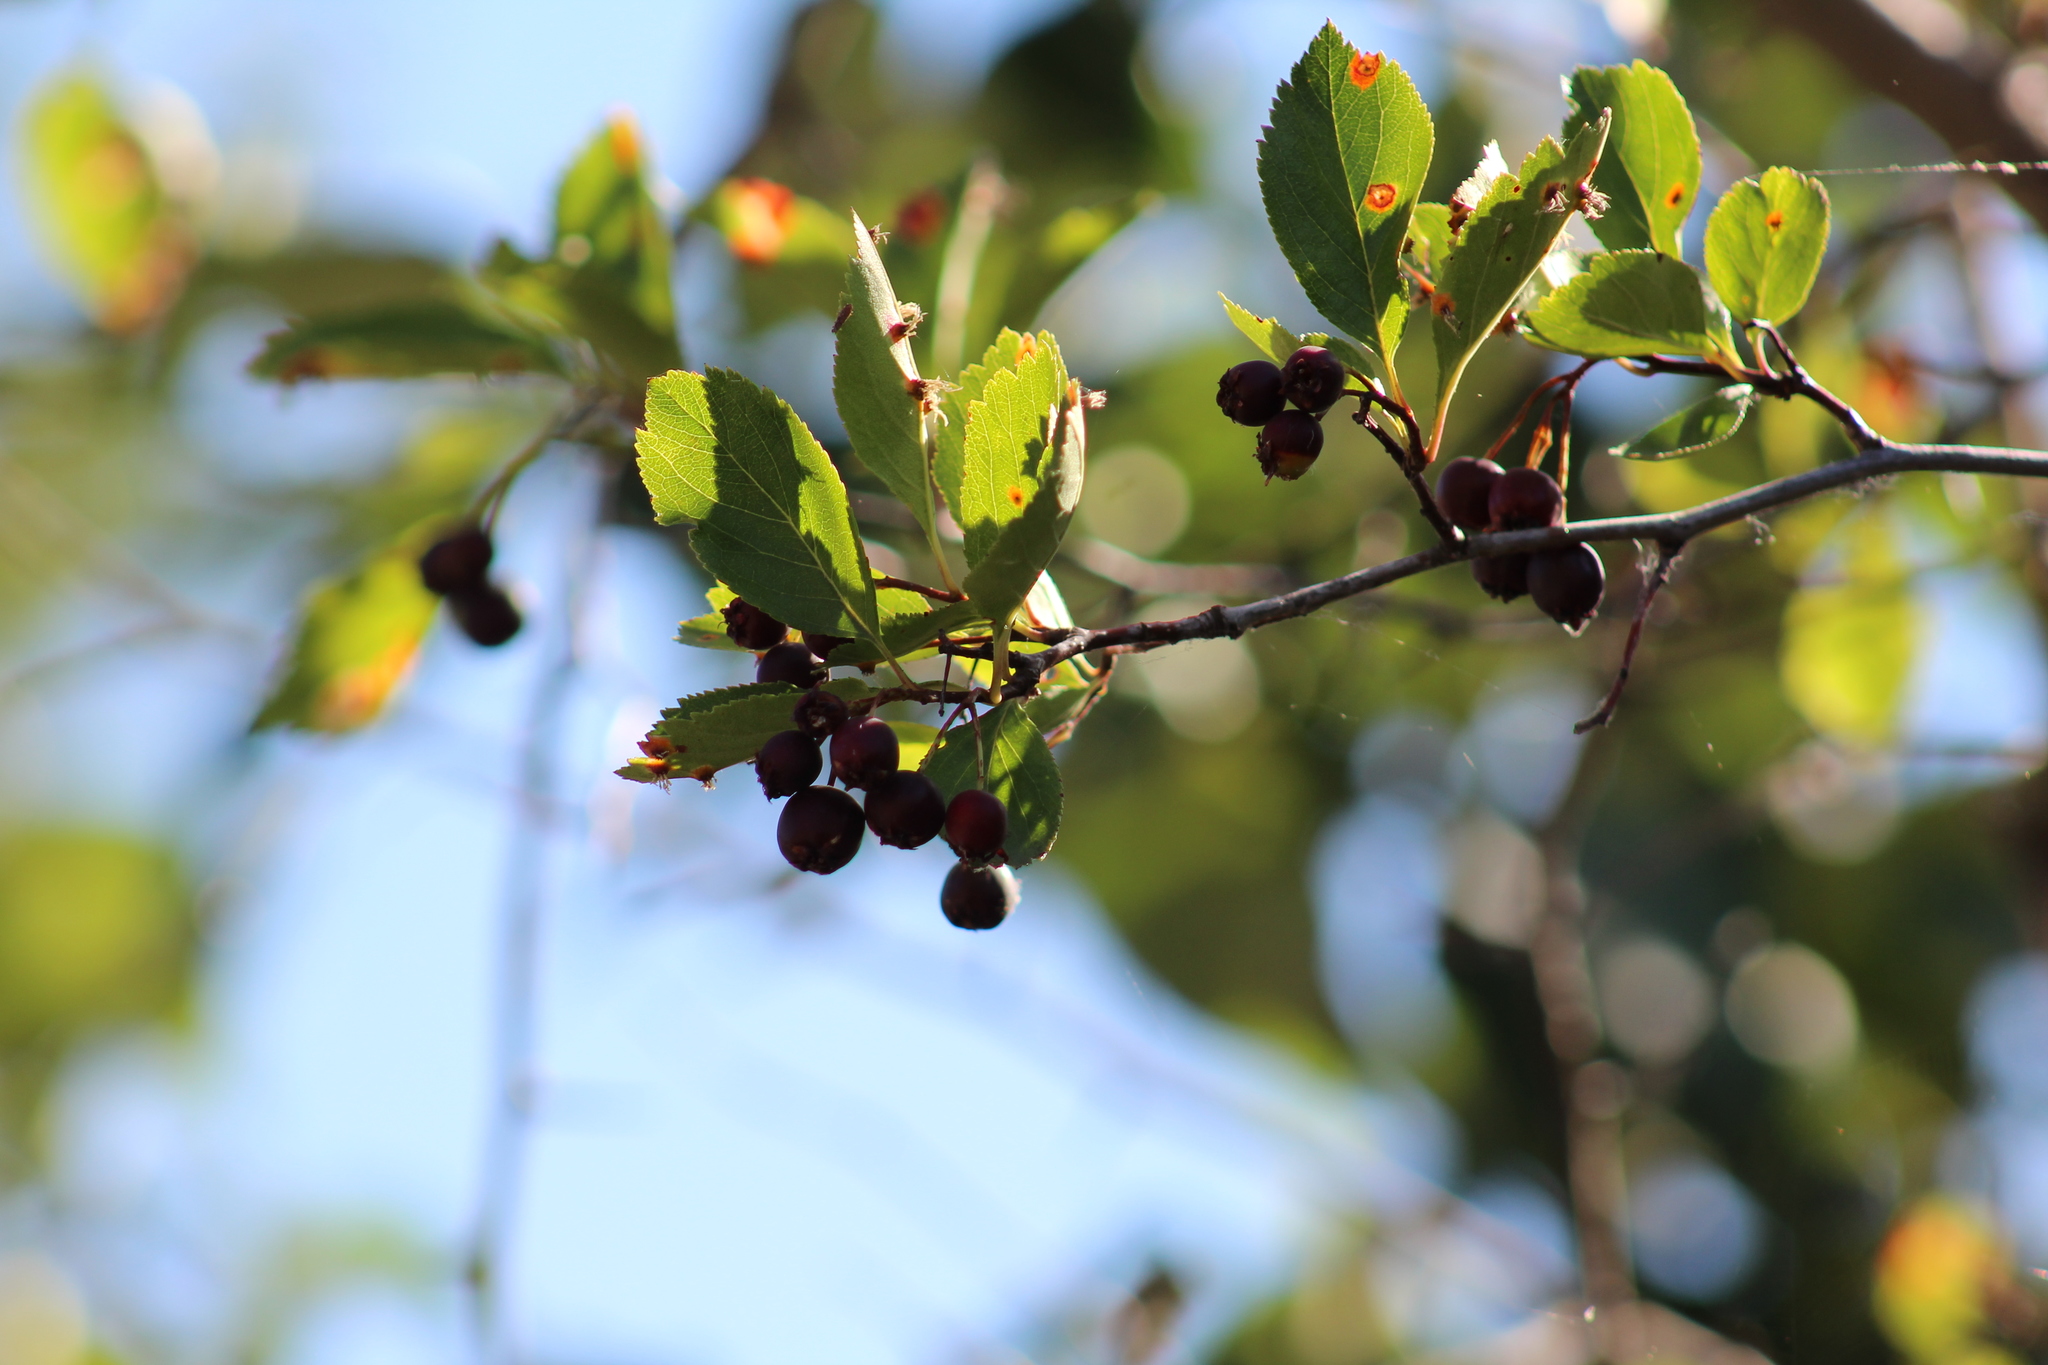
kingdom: Plantae
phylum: Tracheophyta
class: Magnoliopsida
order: Rosales
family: Rosaceae
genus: Crataegus
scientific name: Crataegus douglasii
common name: Black hawthorn
